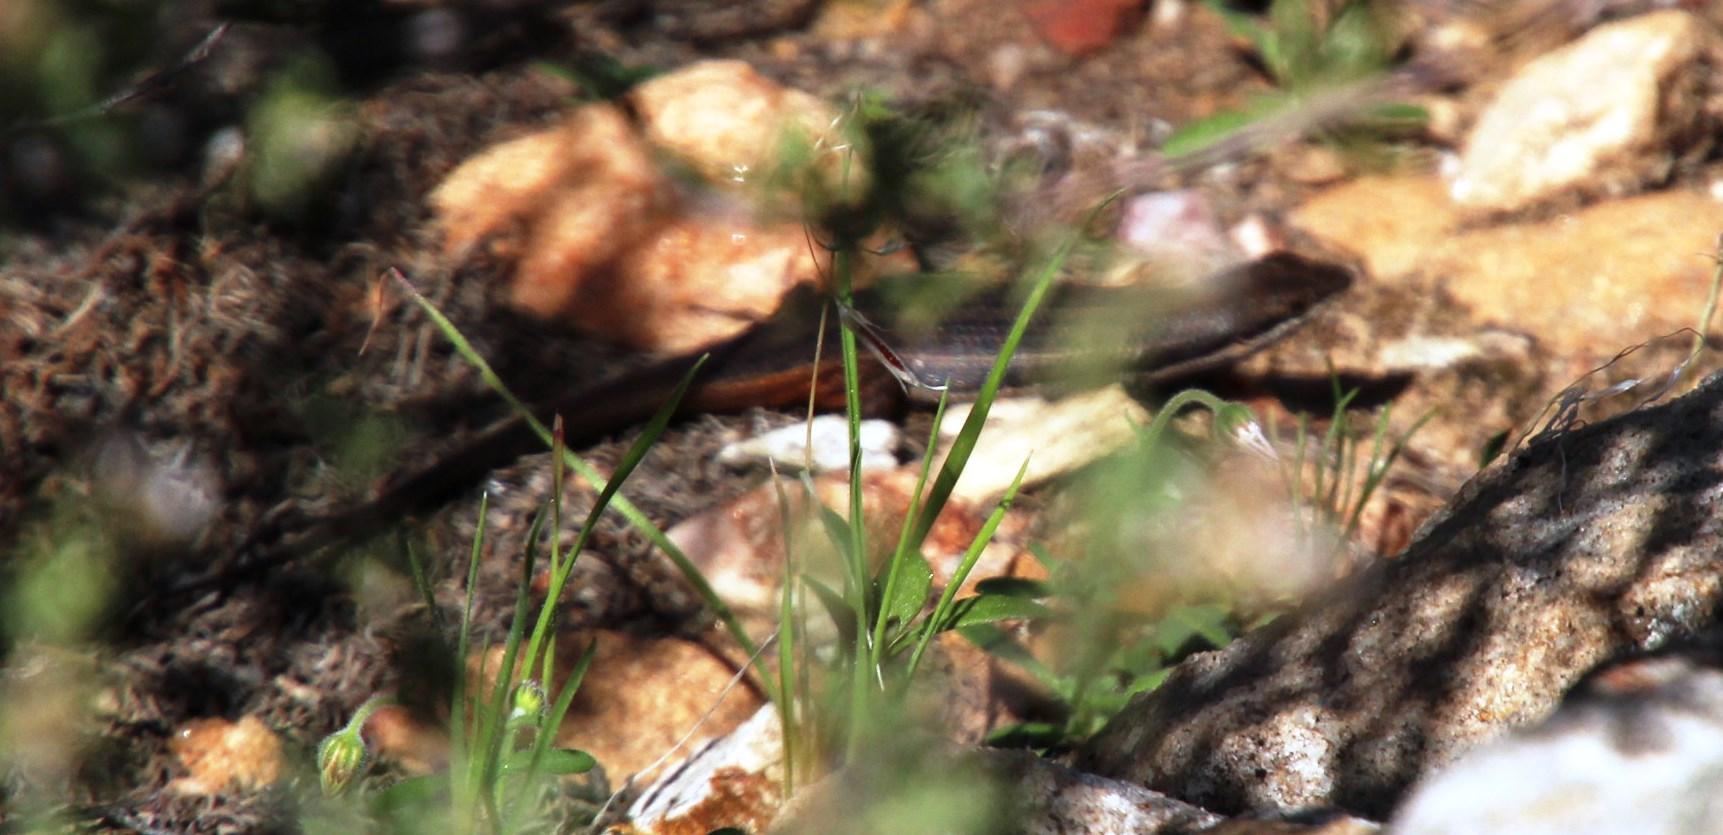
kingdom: Animalia
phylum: Chordata
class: Squamata
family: Scincidae
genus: Trachylepis
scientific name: Trachylepis variegata
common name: Variegated skink
